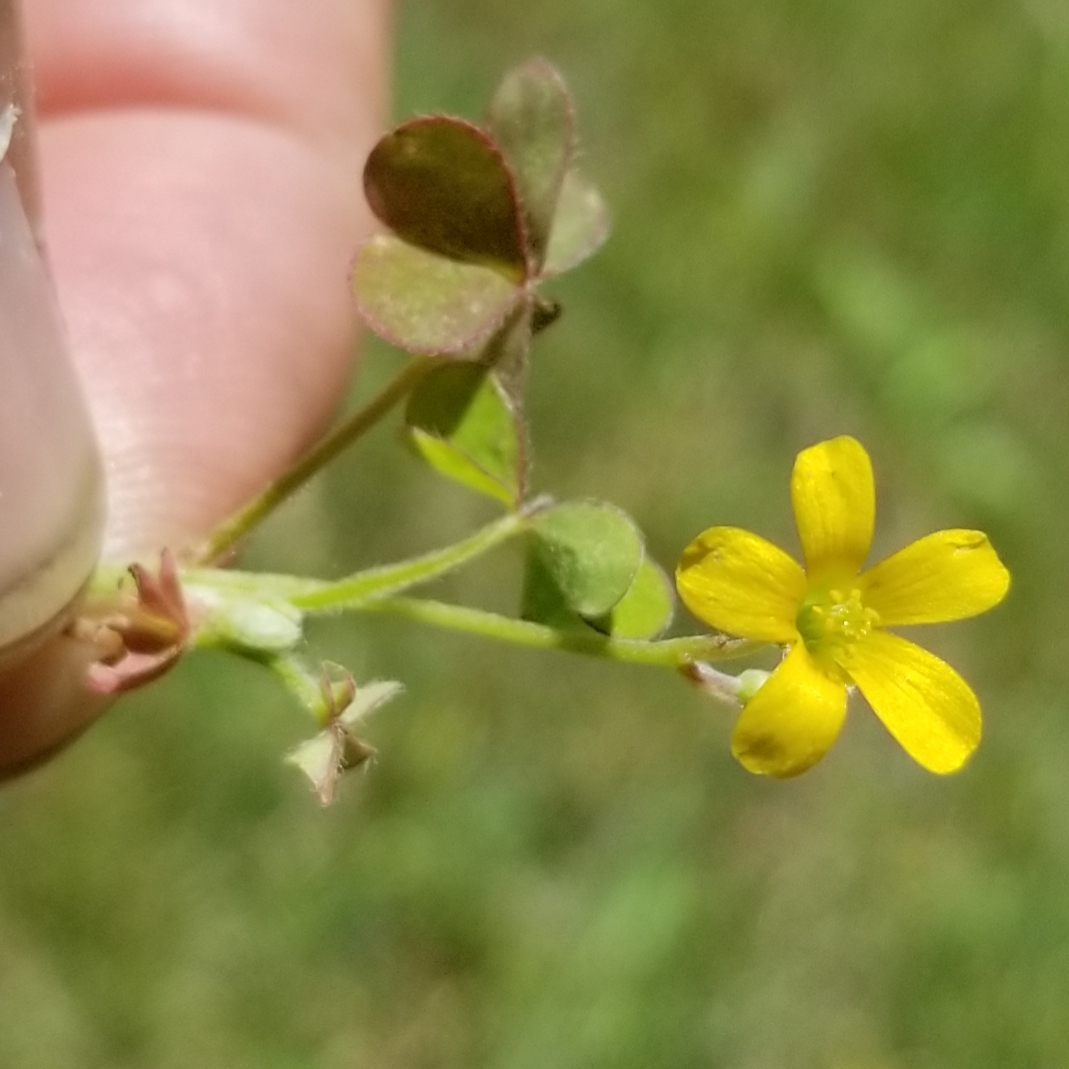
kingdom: Plantae
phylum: Tracheophyta
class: Magnoliopsida
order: Oxalidales
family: Oxalidaceae
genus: Oxalis
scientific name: Oxalis corniculata
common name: Procumbent yellow-sorrel
